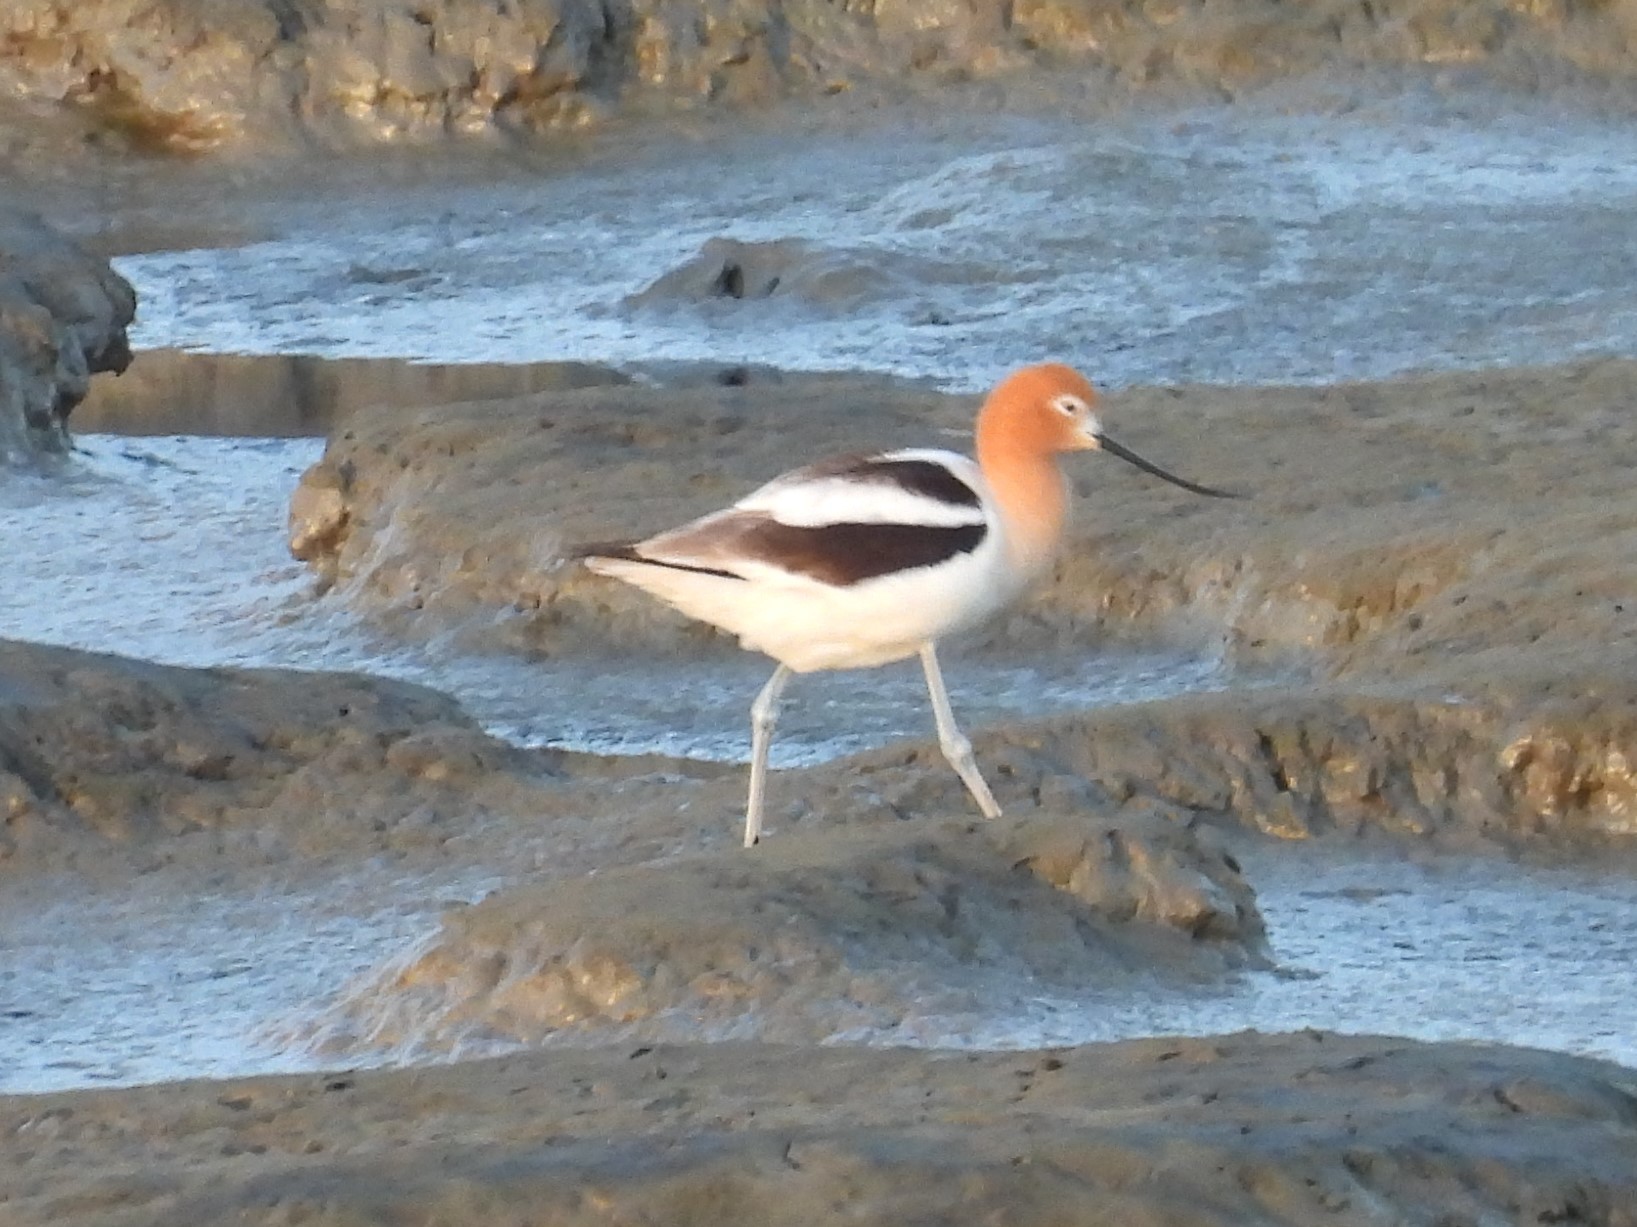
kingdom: Animalia
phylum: Chordata
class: Aves
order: Charadriiformes
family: Recurvirostridae
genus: Recurvirostra
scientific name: Recurvirostra americana
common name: American avocet
